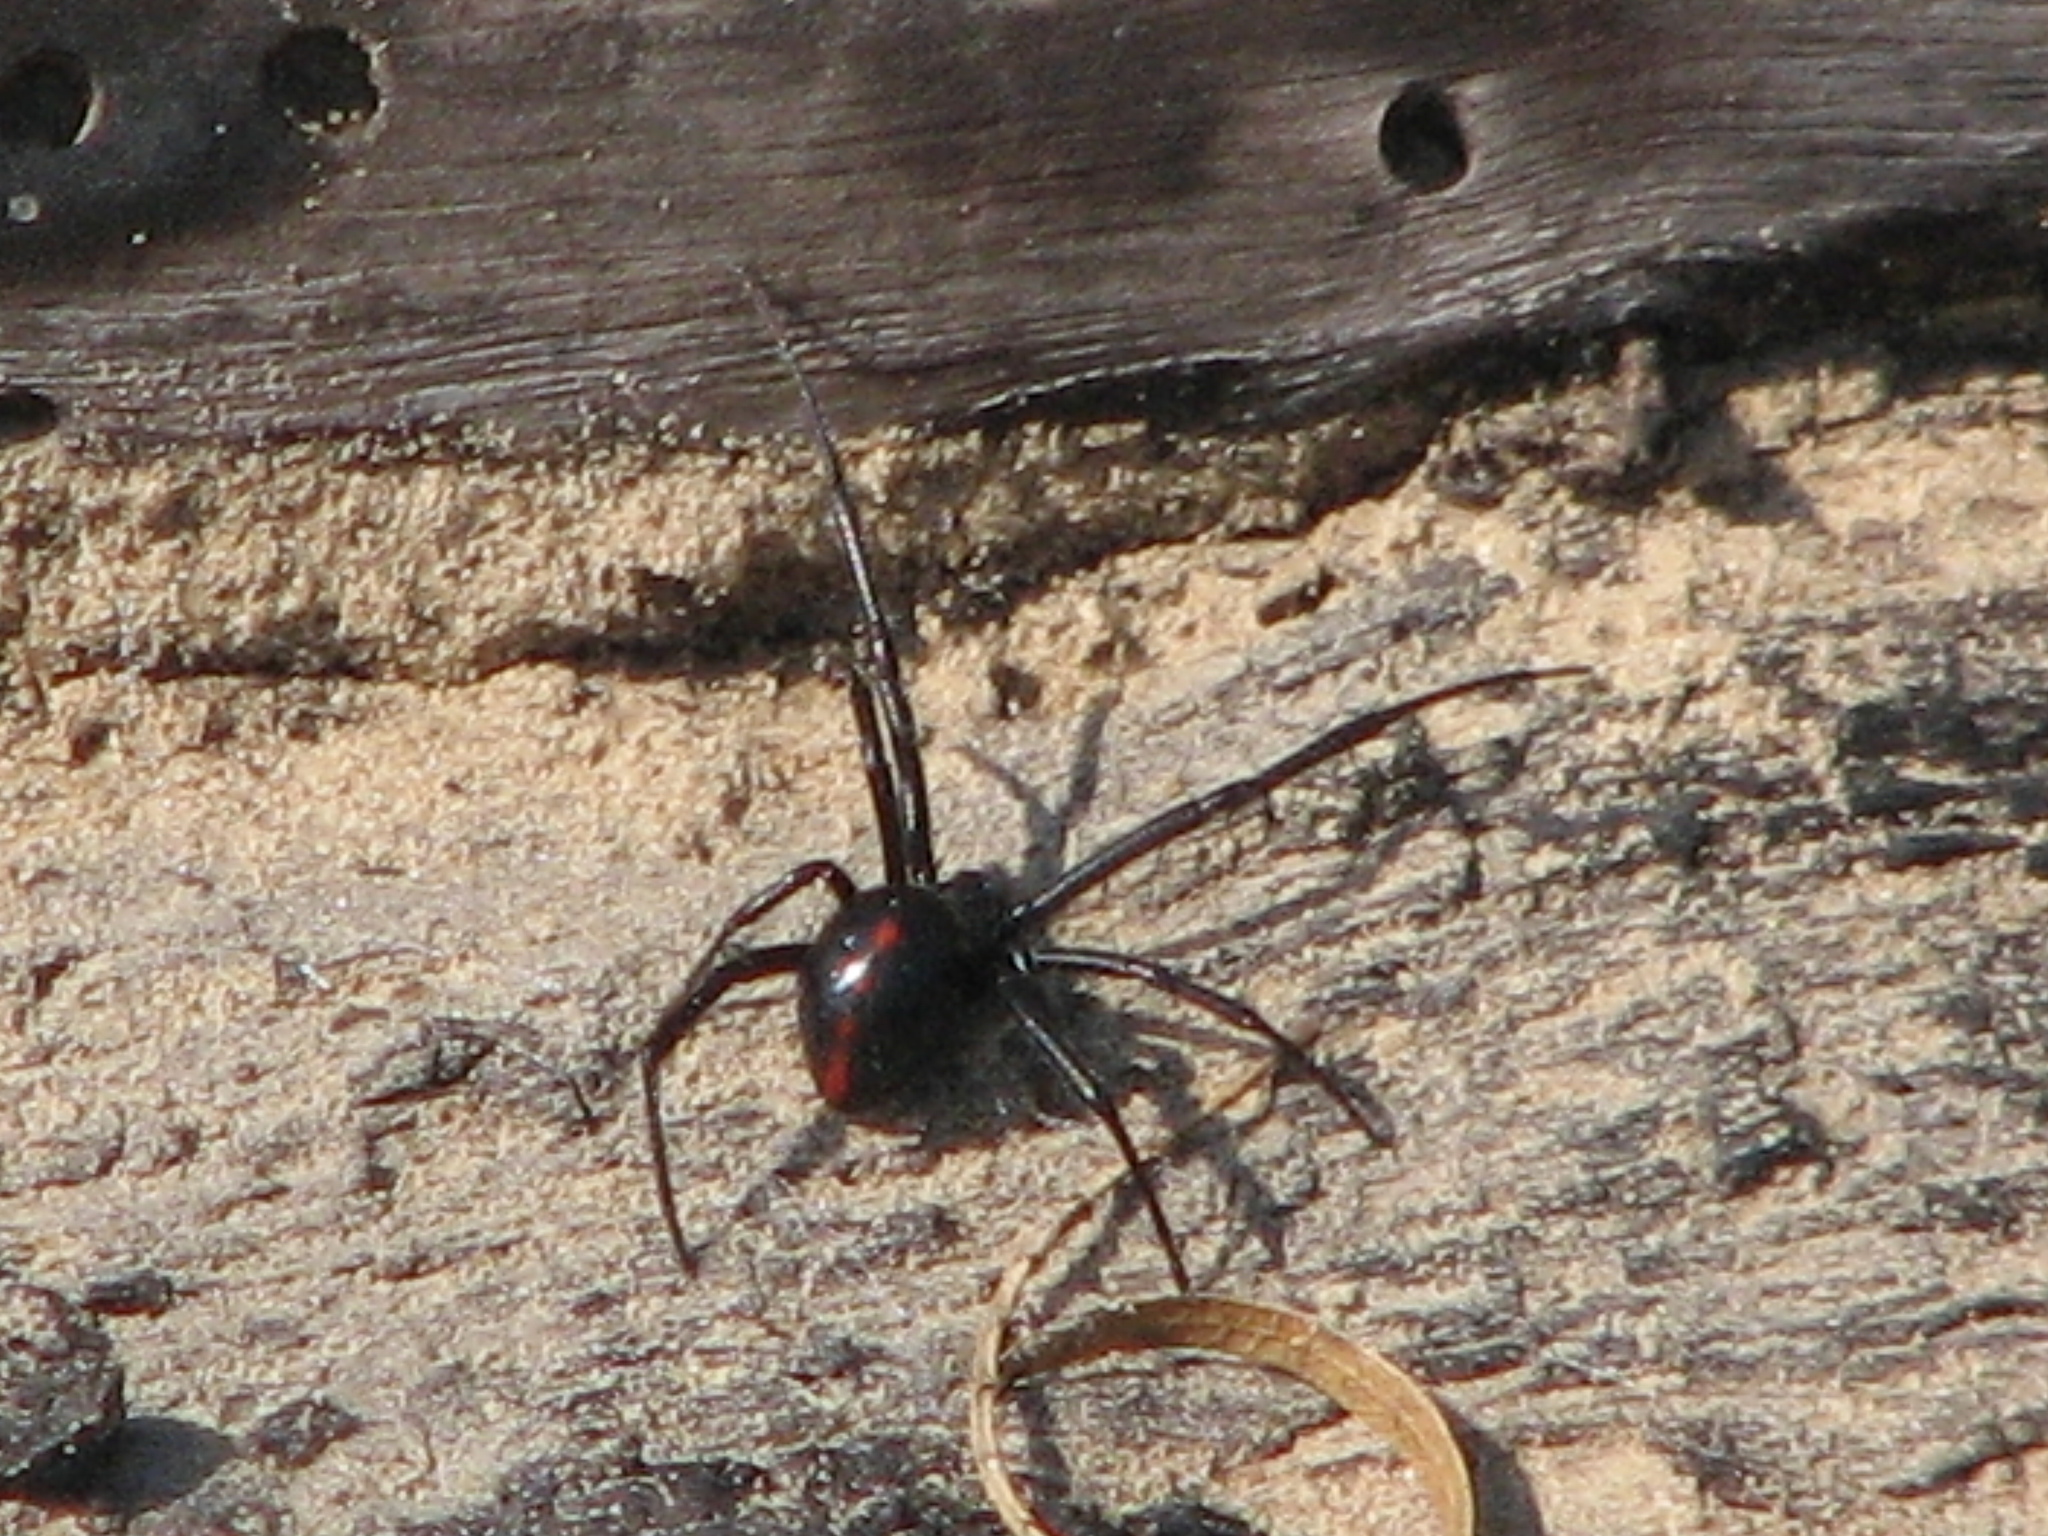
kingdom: Animalia
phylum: Arthropoda
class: Arachnida
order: Araneae
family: Theridiidae
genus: Latrodectus
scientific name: Latrodectus mactans
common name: Cobweb spiders
